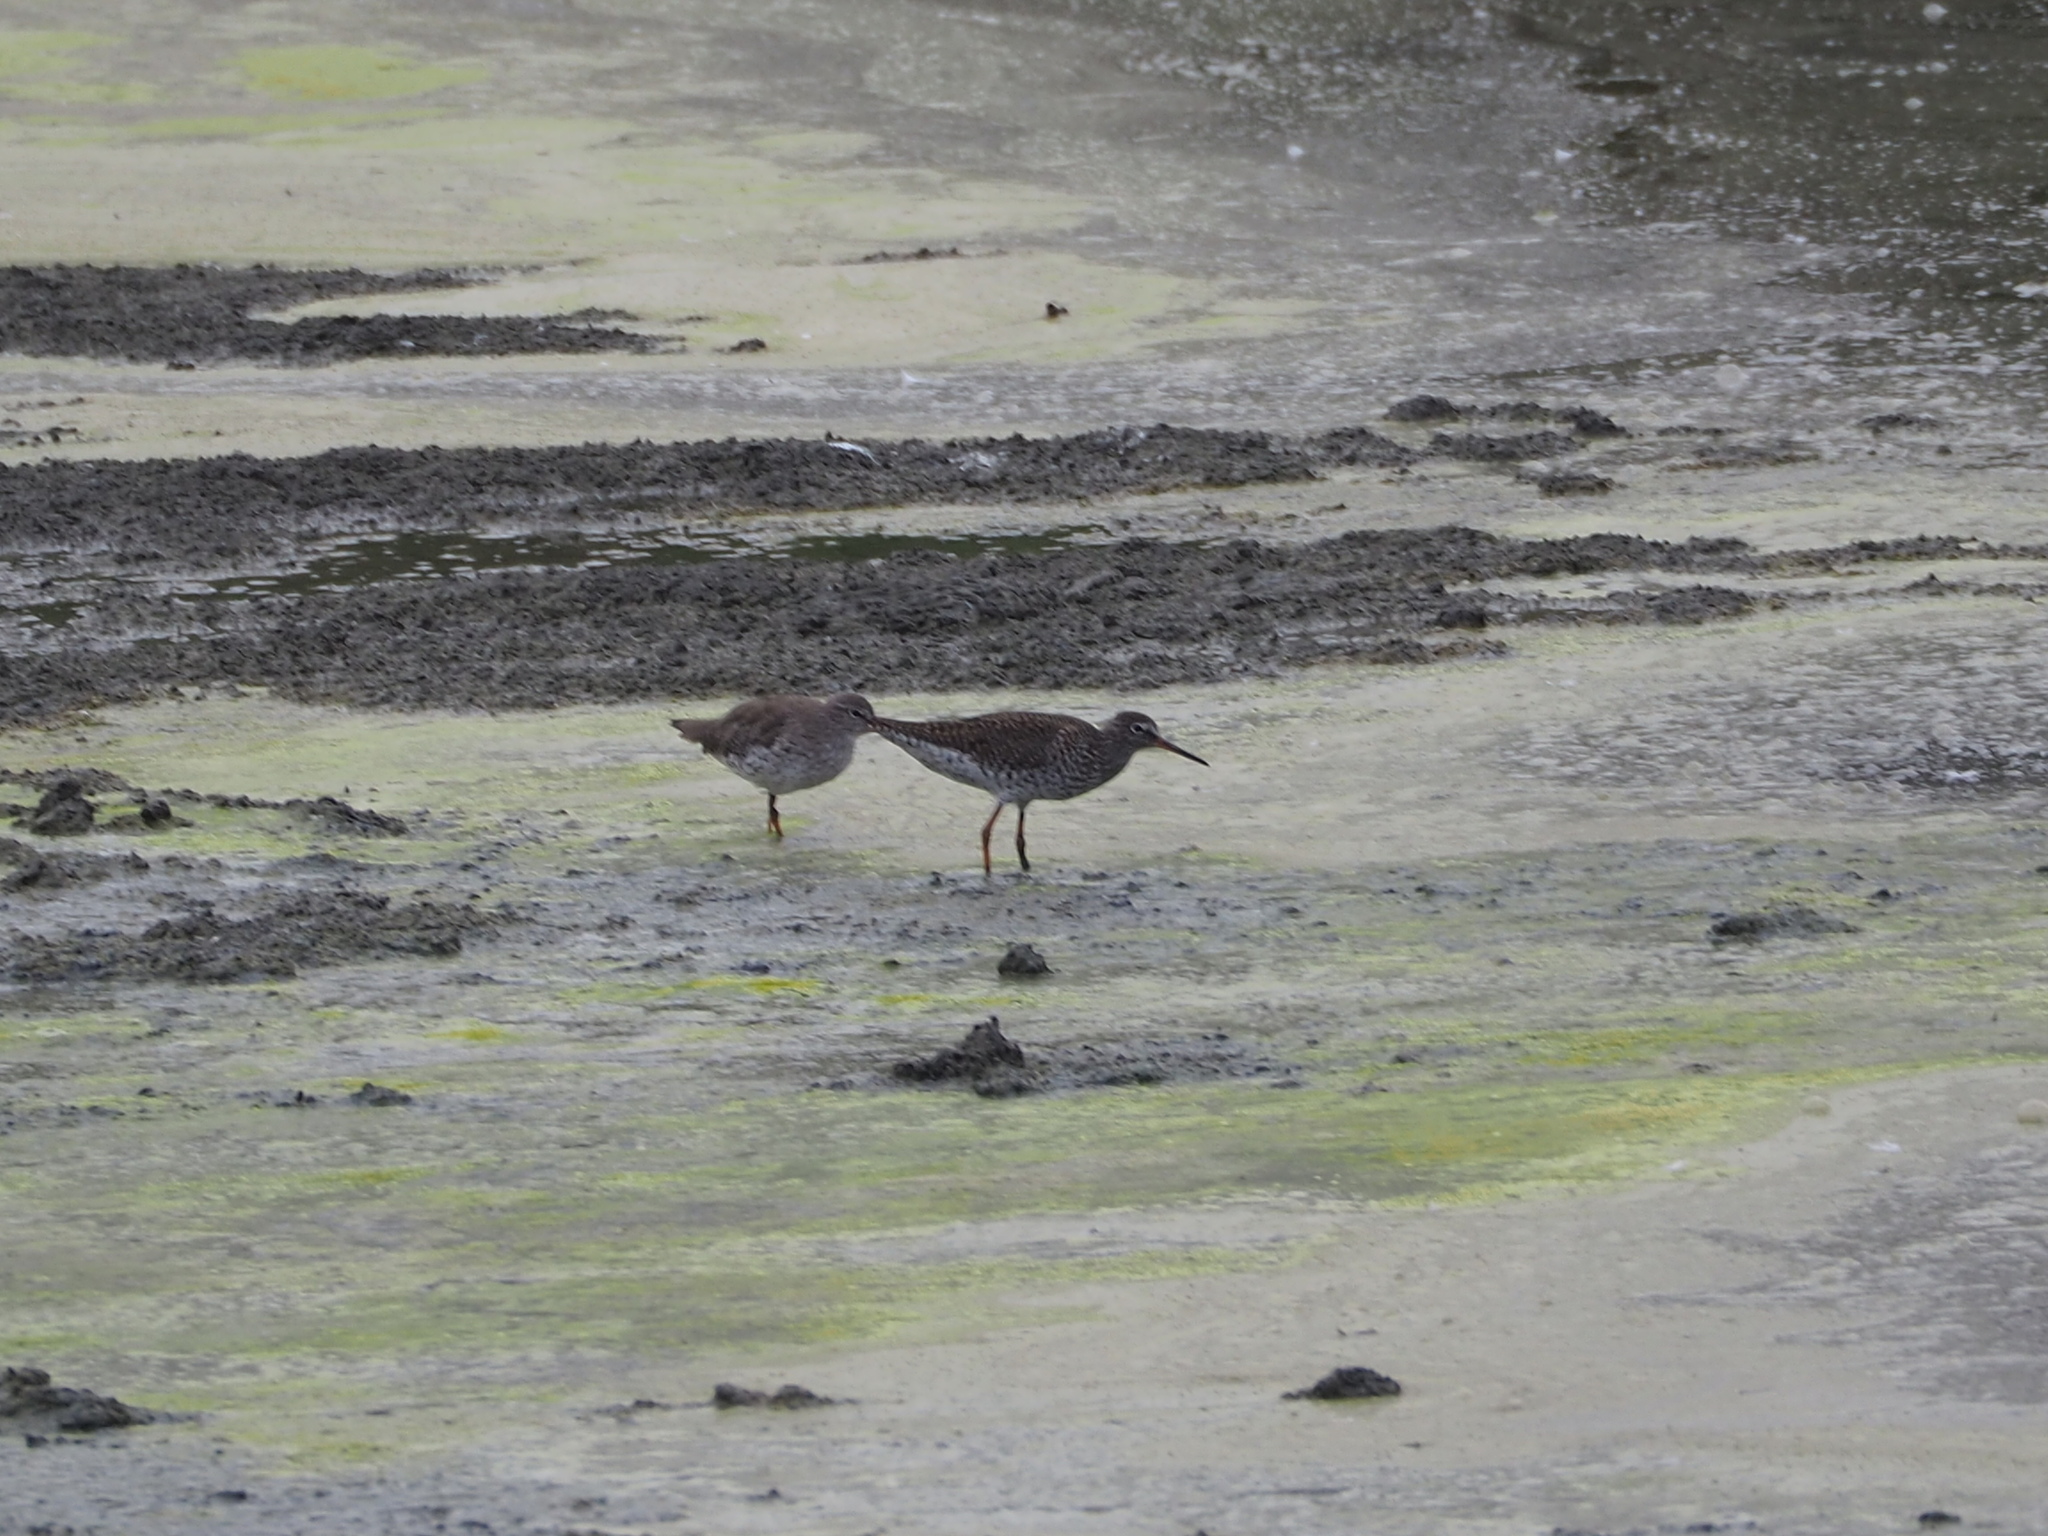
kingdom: Animalia
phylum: Chordata
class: Aves
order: Charadriiformes
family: Scolopacidae
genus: Tringa
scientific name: Tringa totanus
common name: Common redshank
